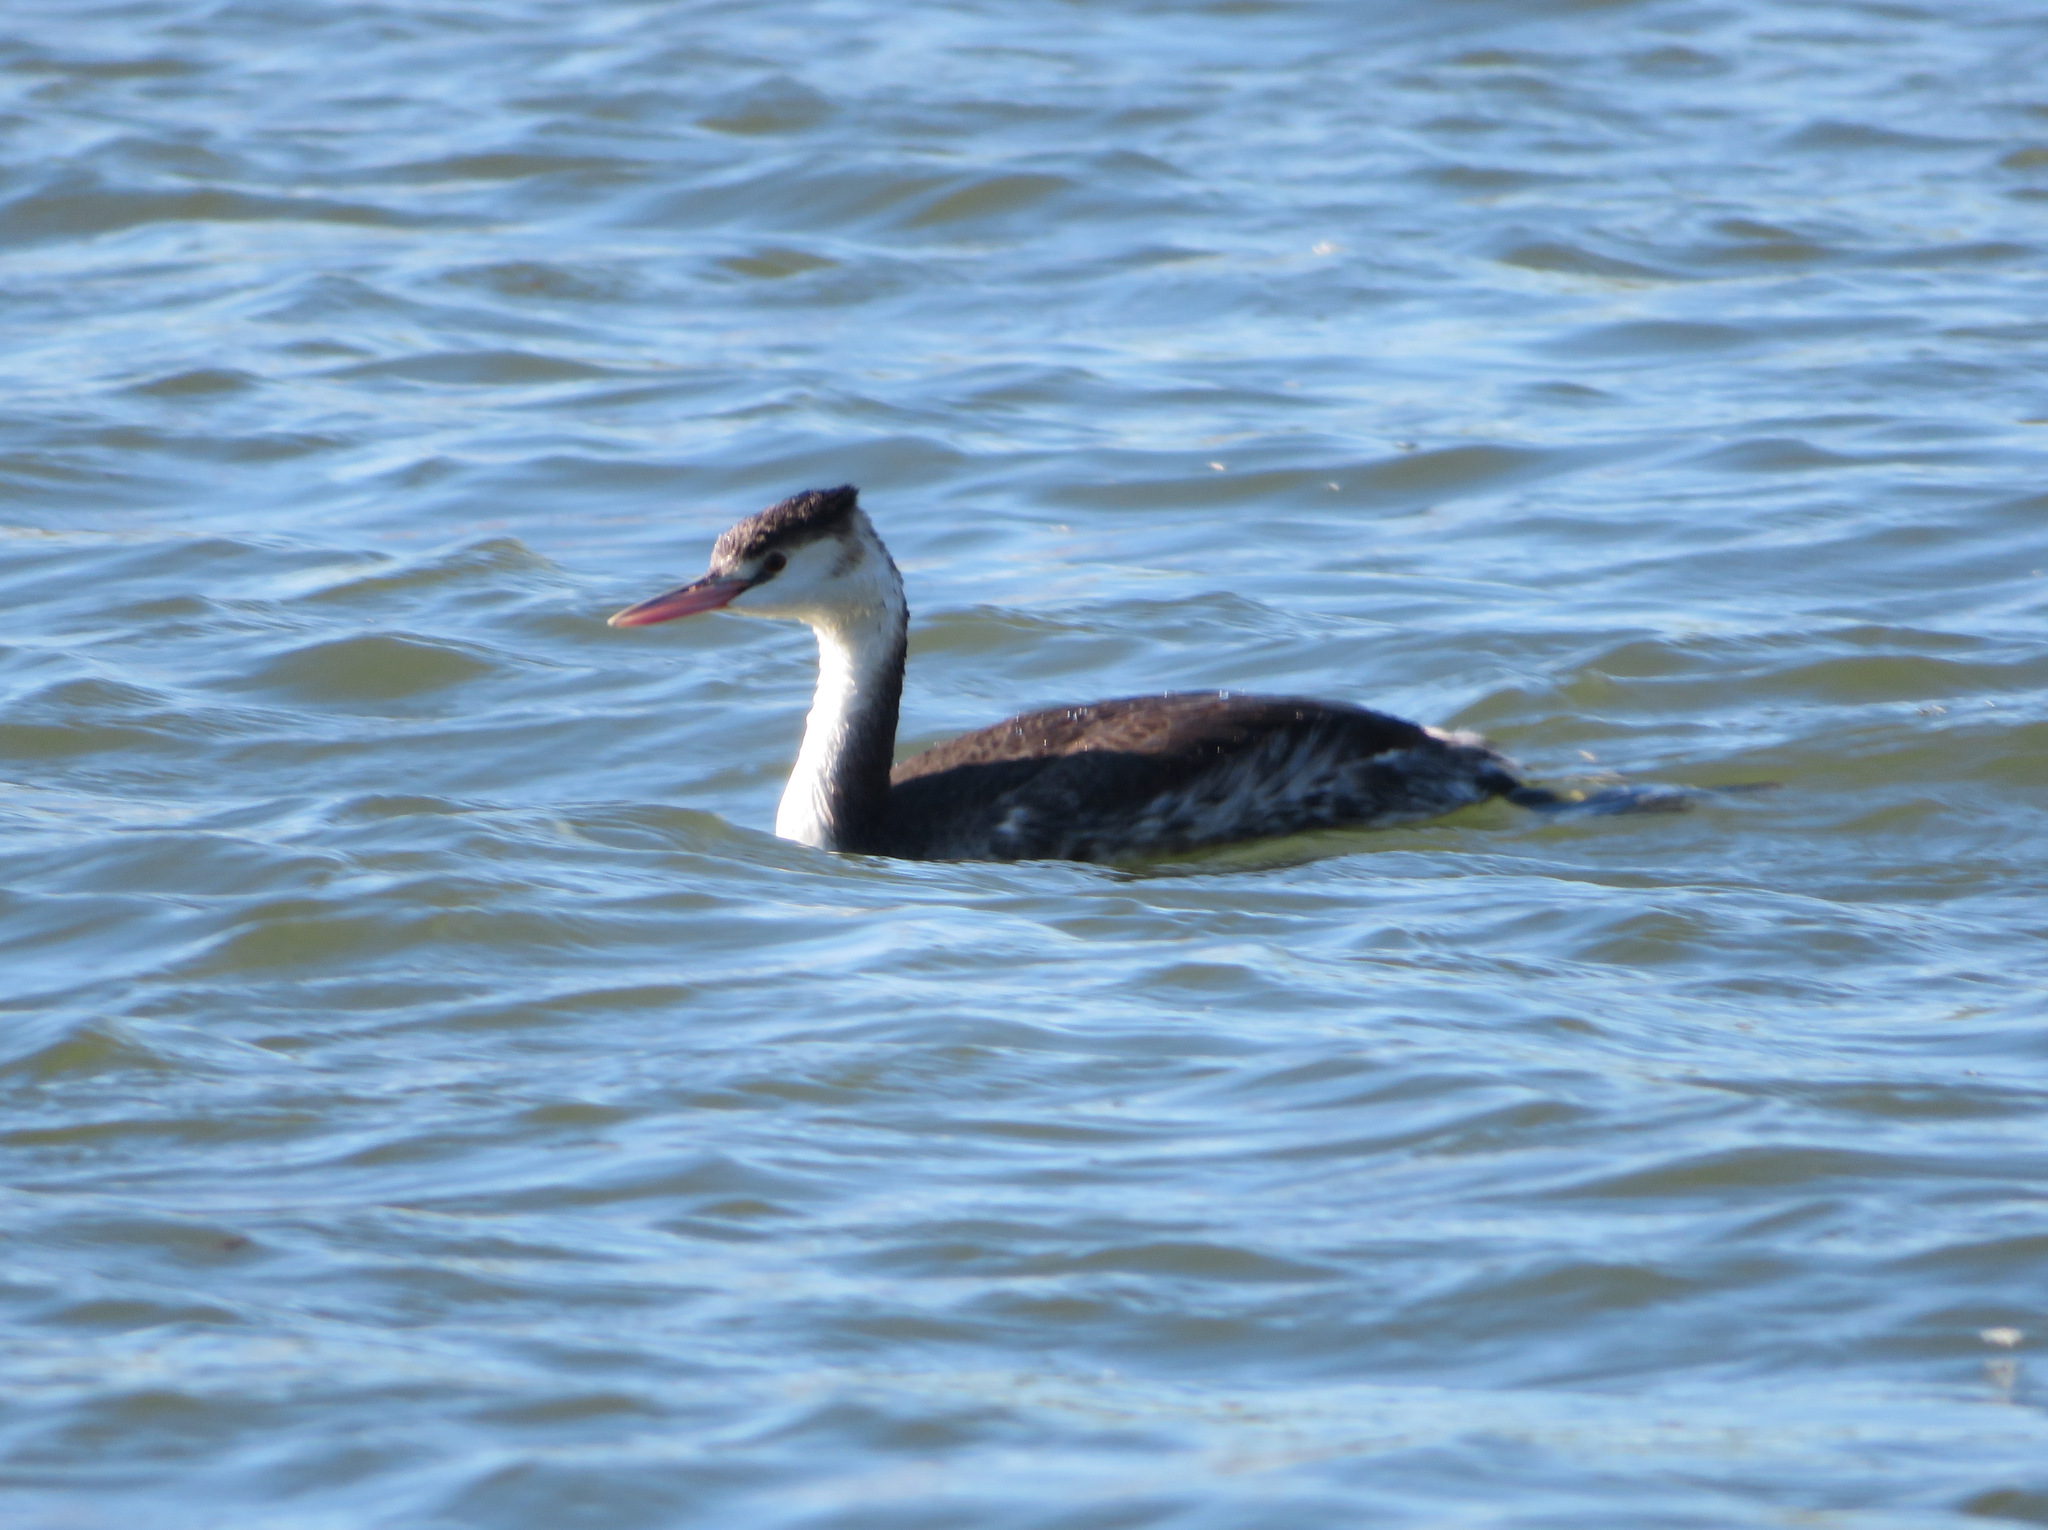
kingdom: Animalia
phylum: Chordata
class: Aves
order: Podicipediformes
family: Podicipedidae
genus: Podiceps
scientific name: Podiceps cristatus
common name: Great crested grebe
